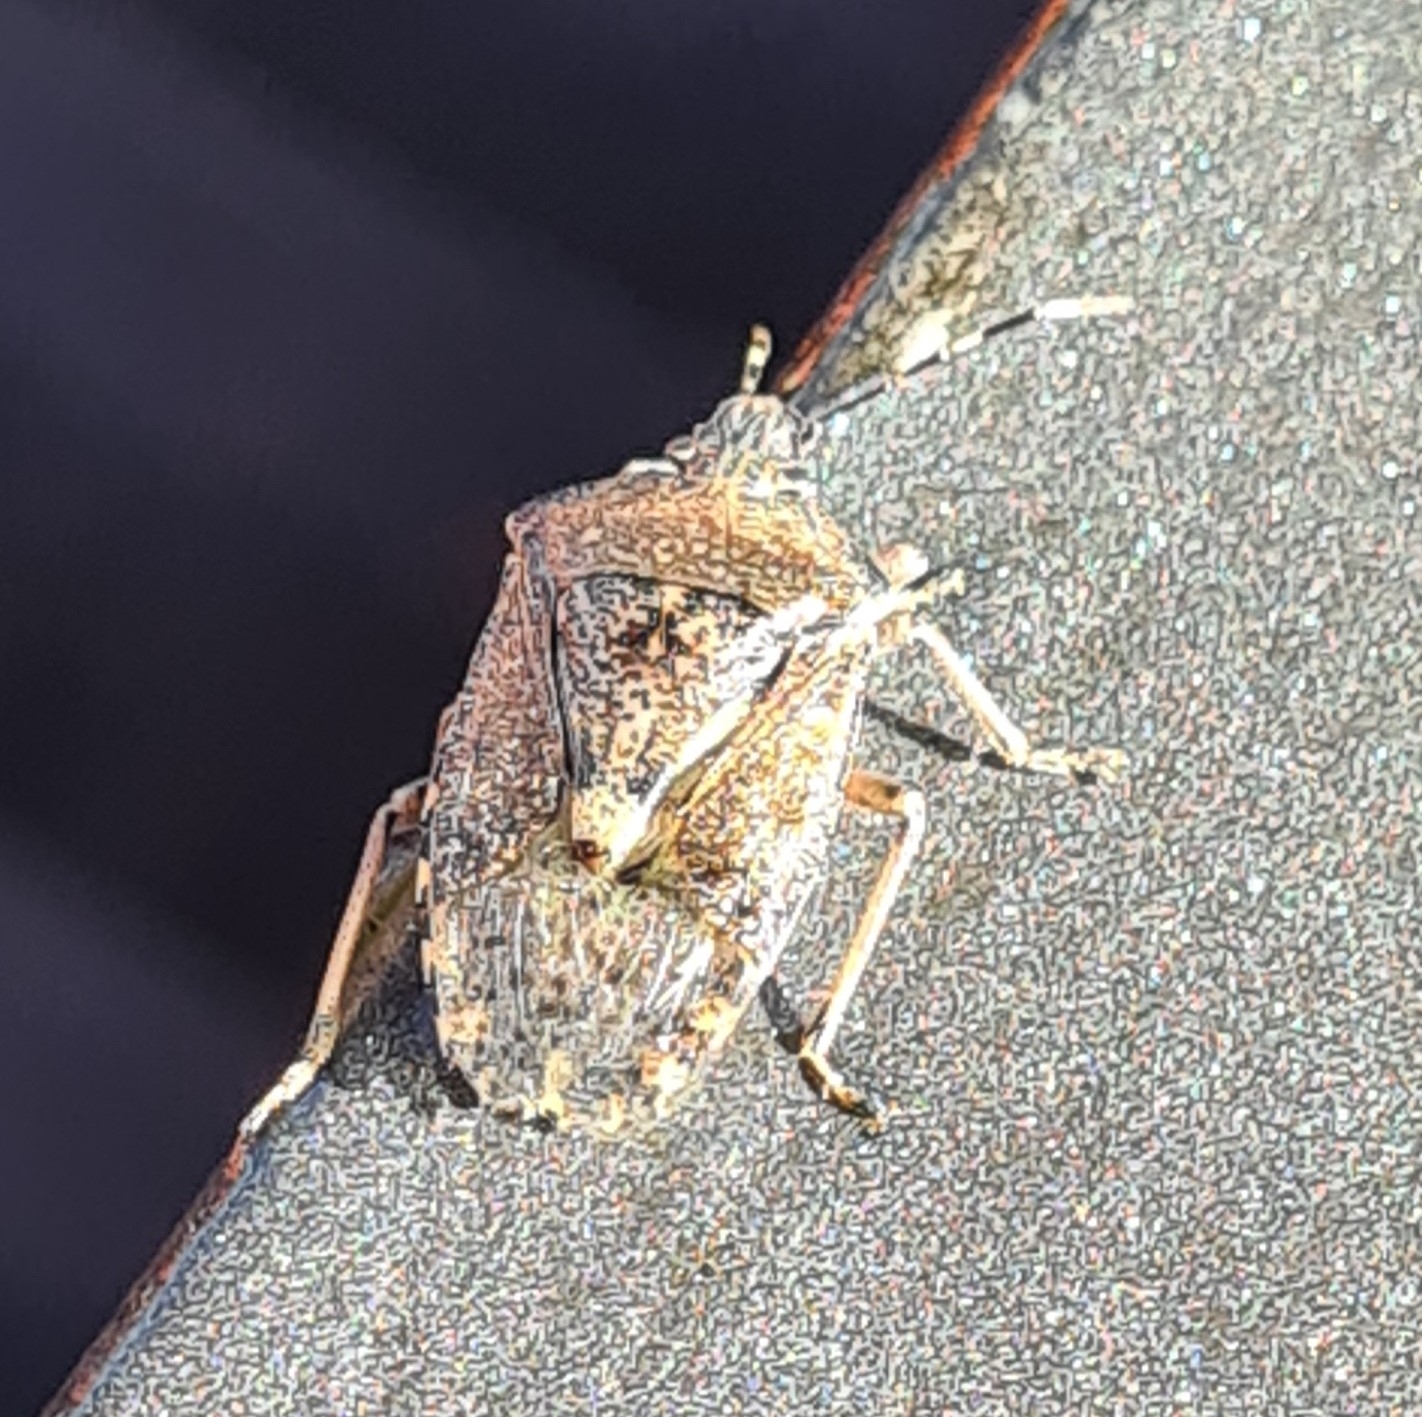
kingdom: Animalia
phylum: Arthropoda
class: Insecta
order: Hemiptera
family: Pentatomidae
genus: Rhaphigaster
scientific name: Rhaphigaster nebulosa
